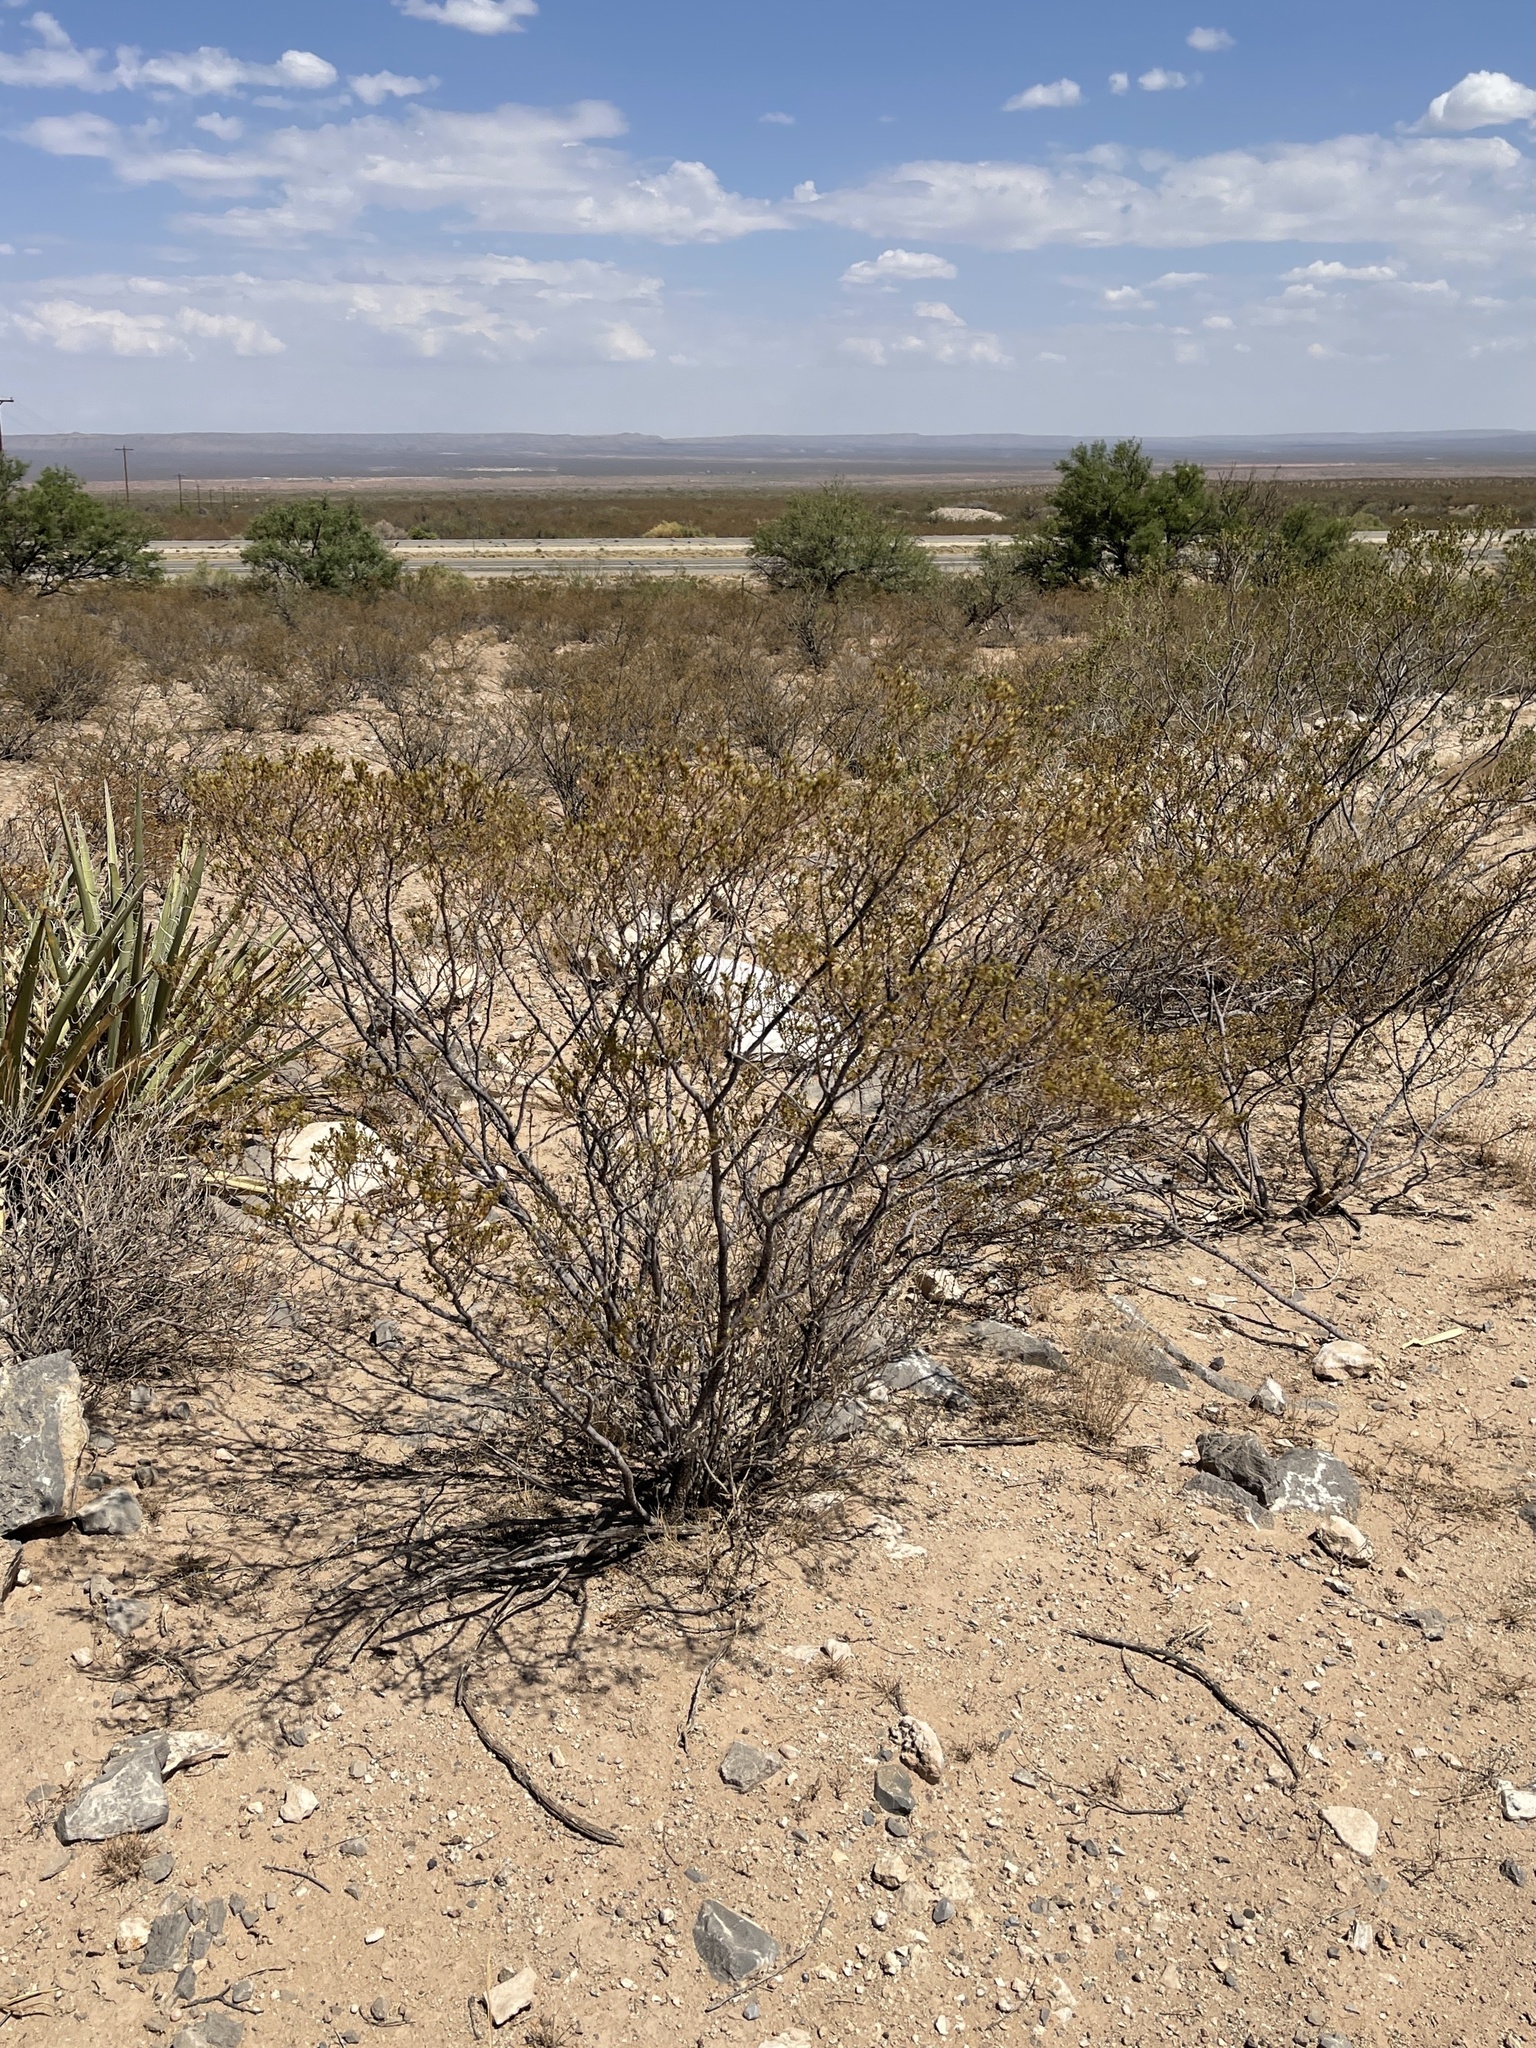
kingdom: Plantae
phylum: Tracheophyta
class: Magnoliopsida
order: Zygophyllales
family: Zygophyllaceae
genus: Larrea
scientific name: Larrea tridentata
